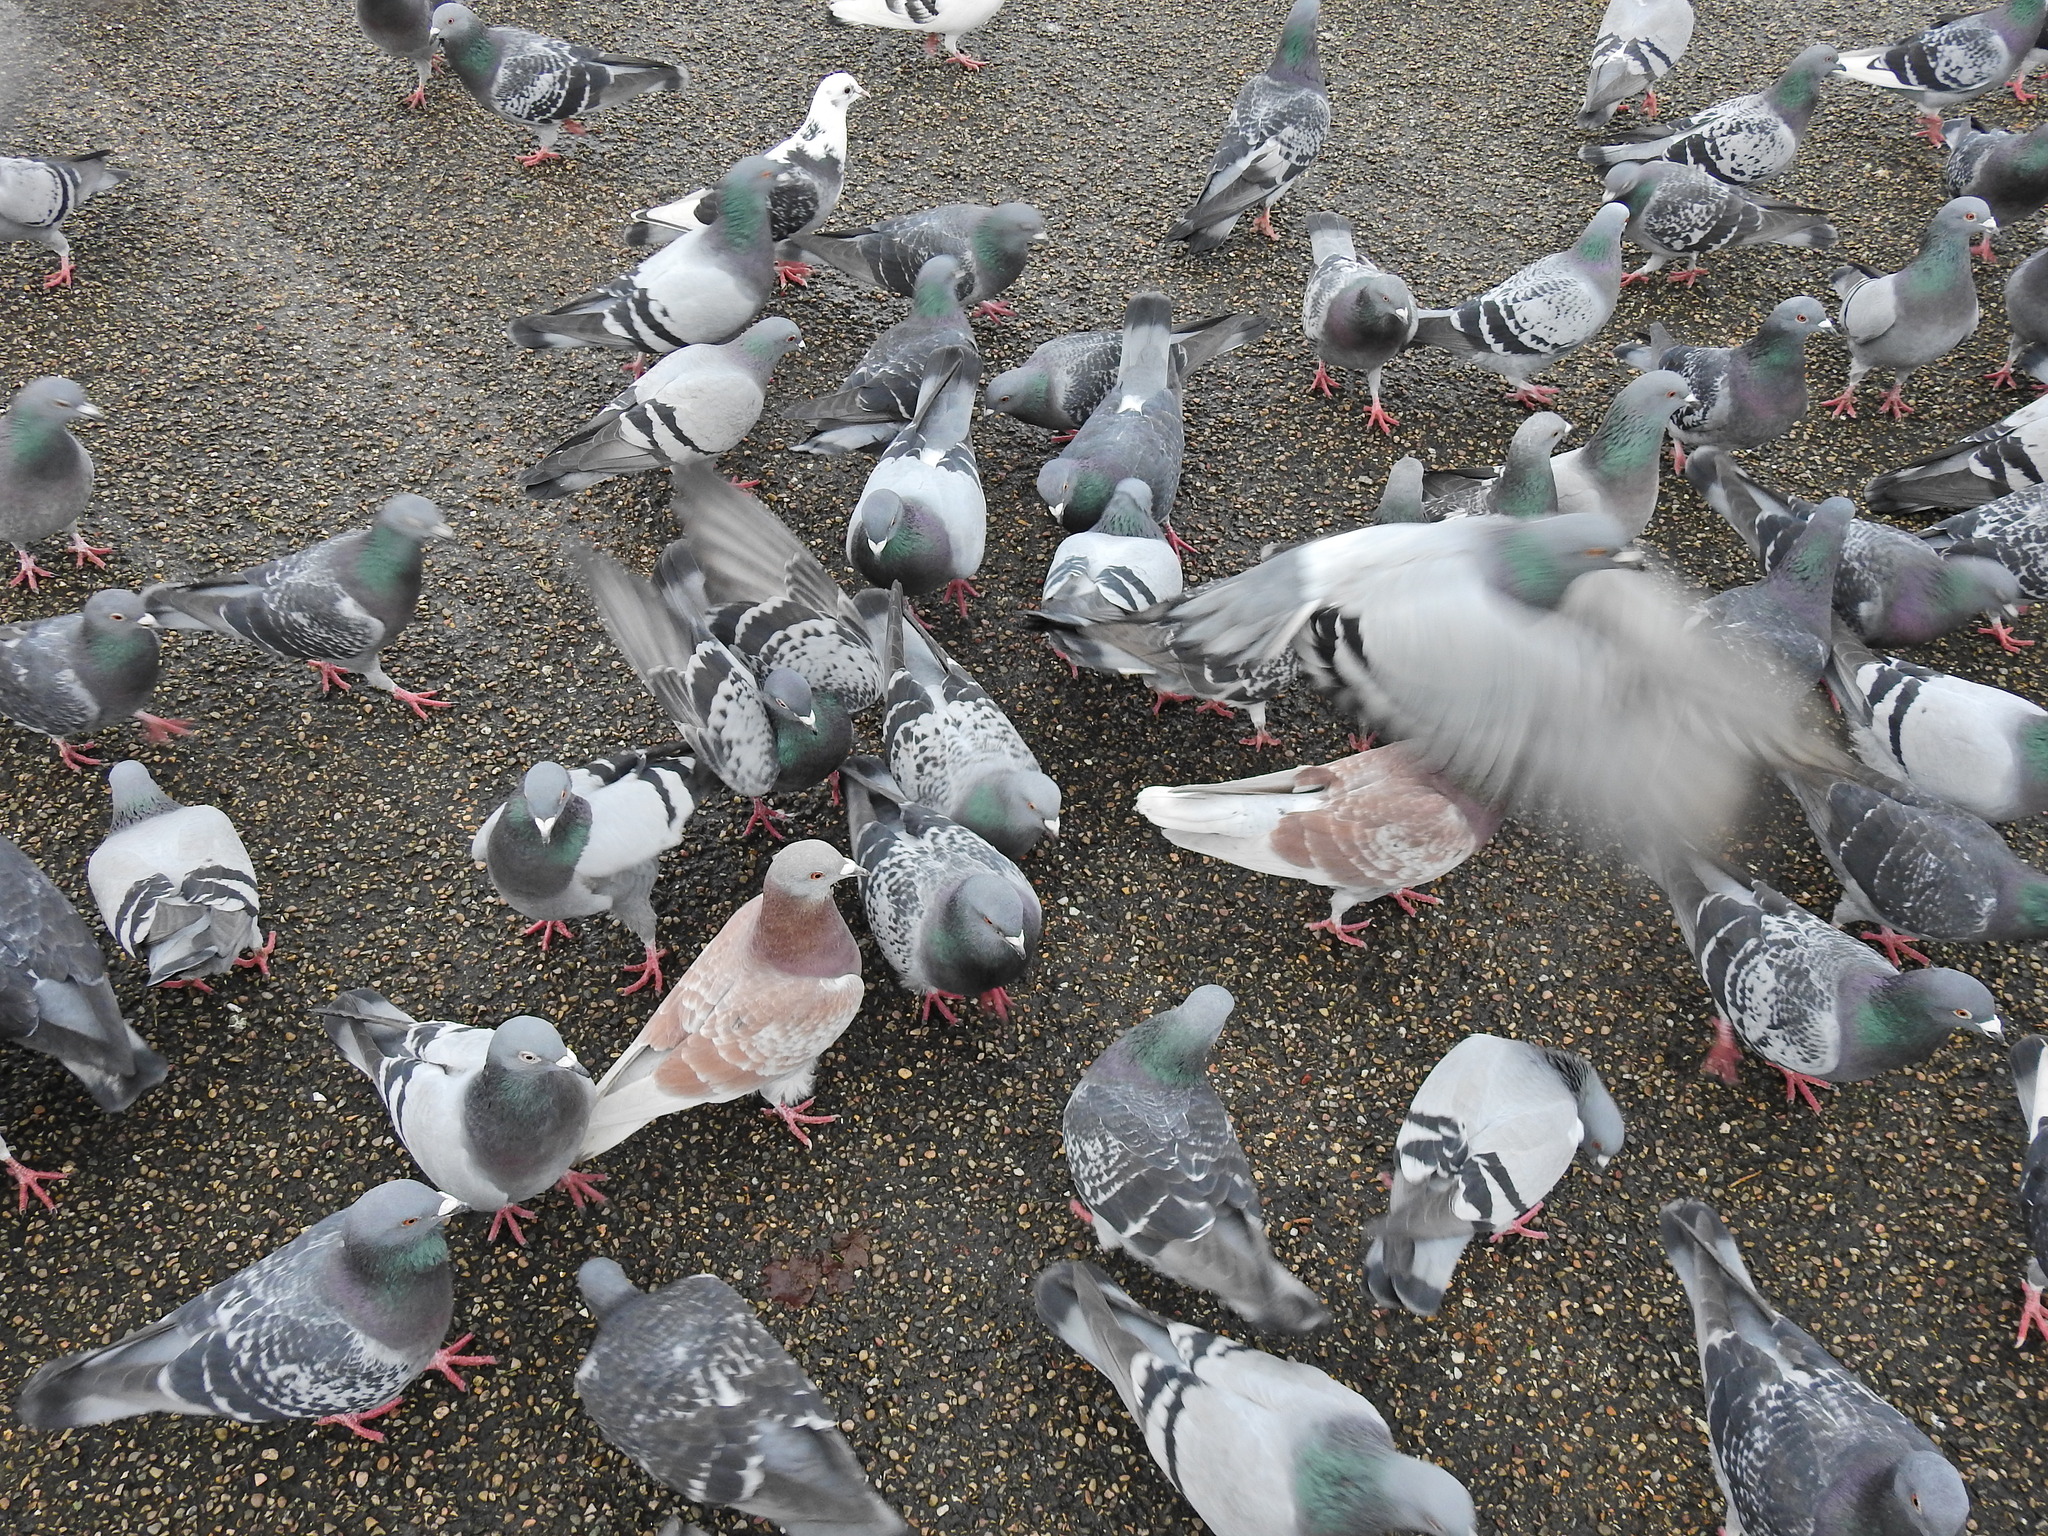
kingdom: Animalia
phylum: Chordata
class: Aves
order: Columbiformes
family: Columbidae
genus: Columba
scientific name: Columba livia
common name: Rock pigeon
